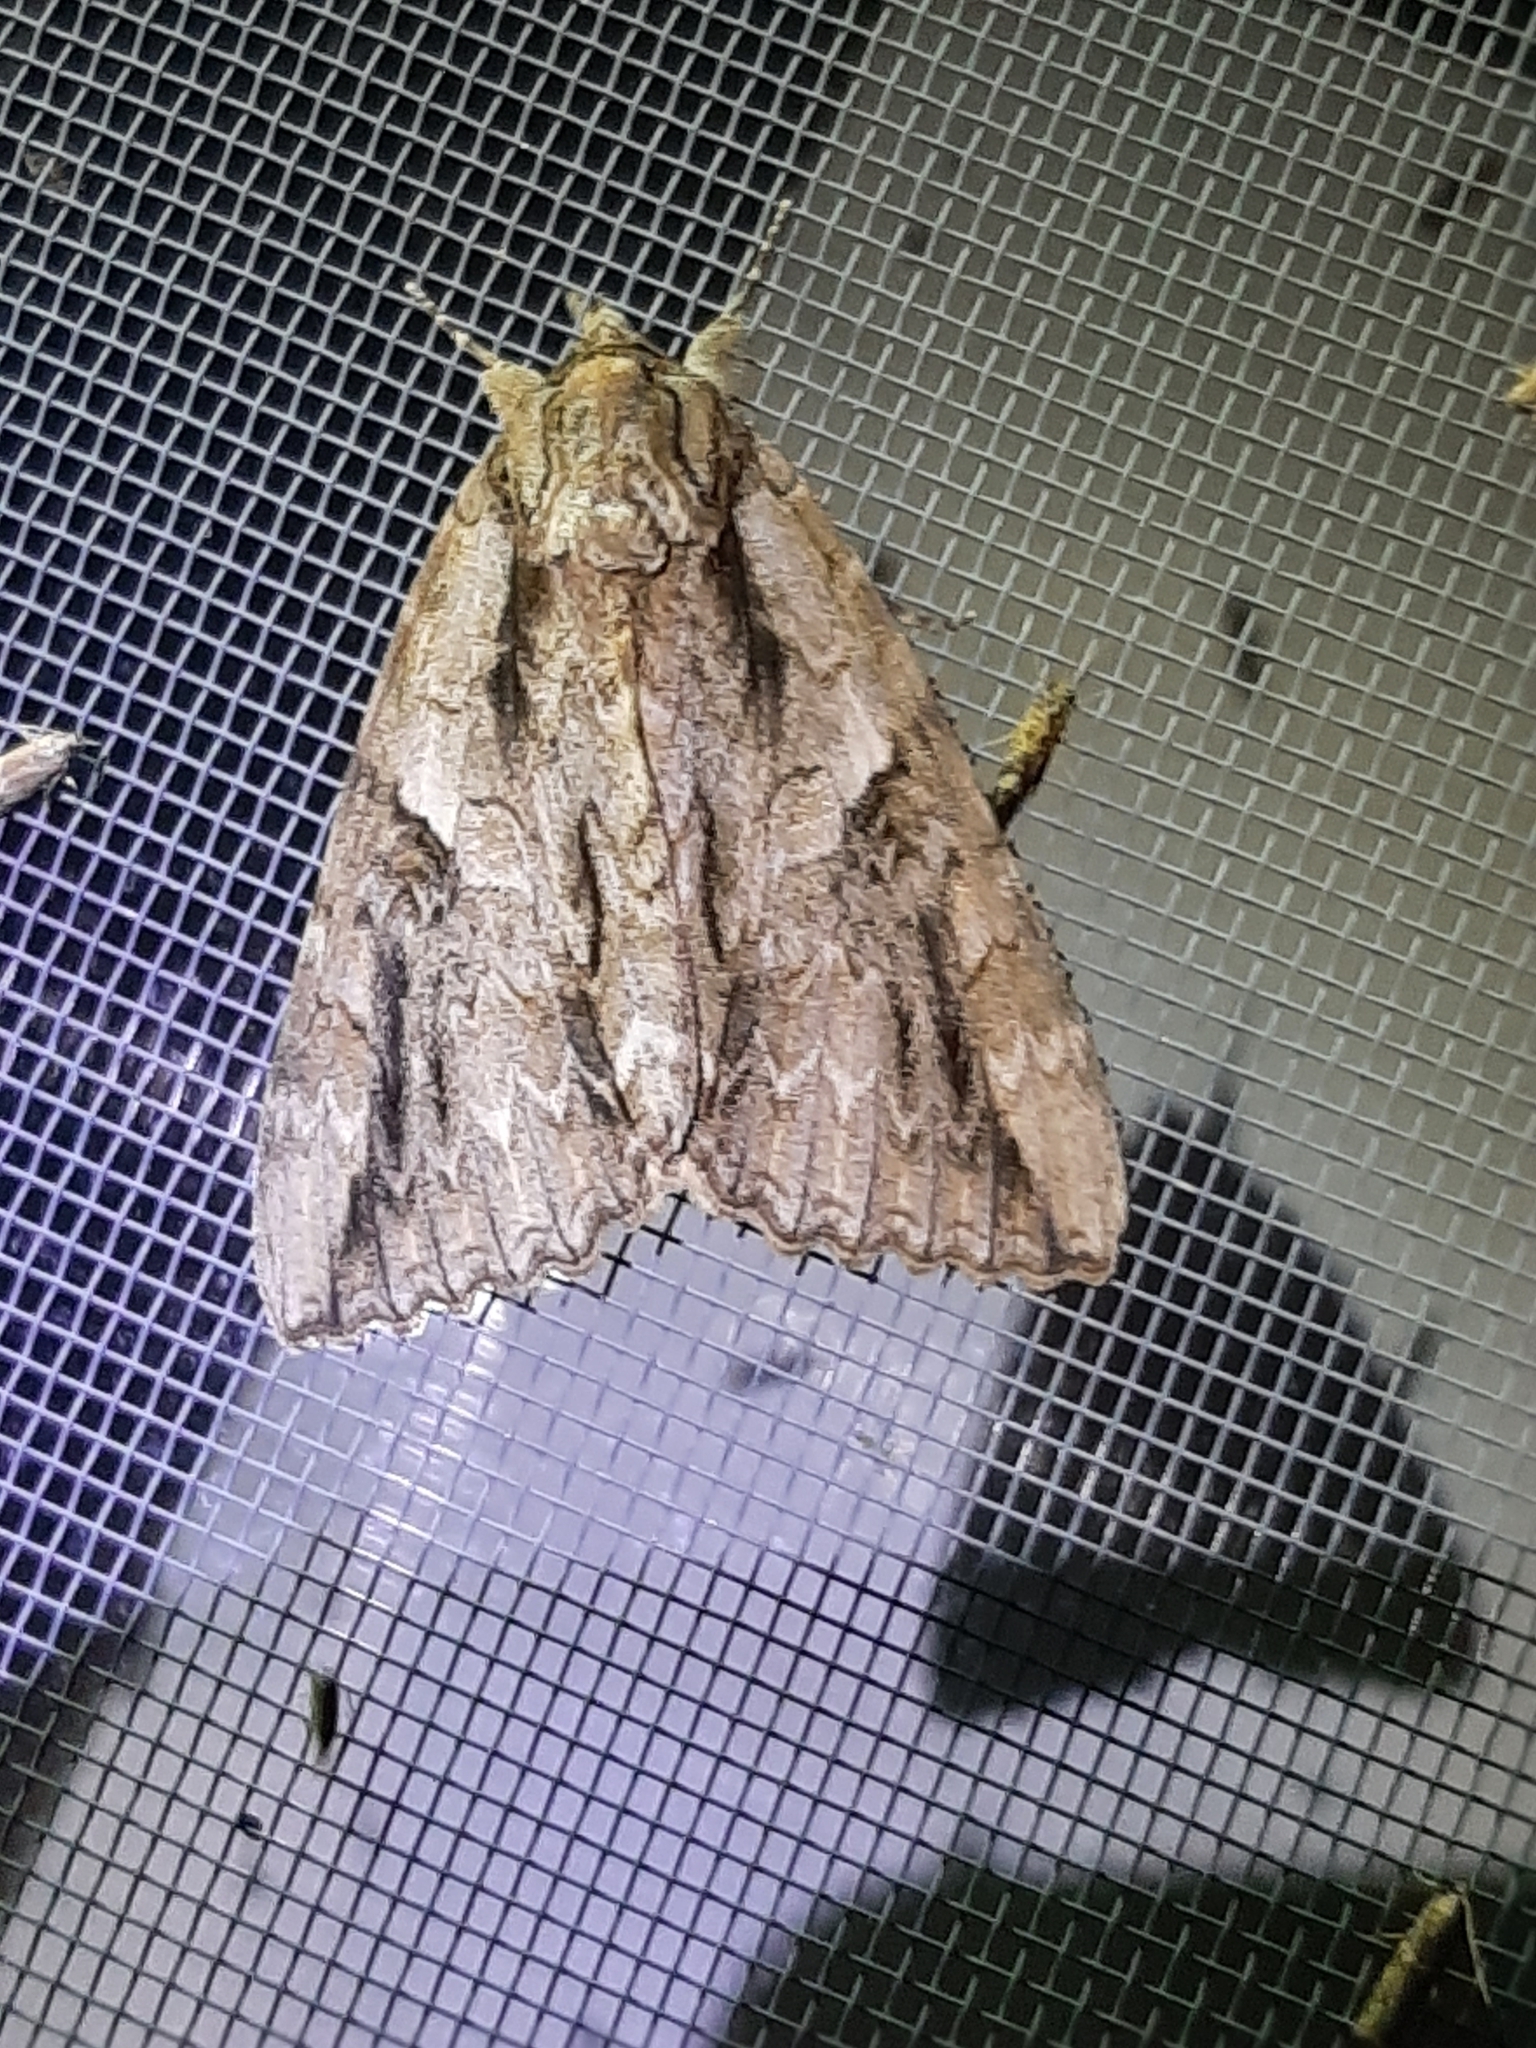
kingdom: Animalia
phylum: Arthropoda
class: Insecta
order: Lepidoptera
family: Erebidae
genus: Catocala
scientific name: Catocala parta
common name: Mother underwing
